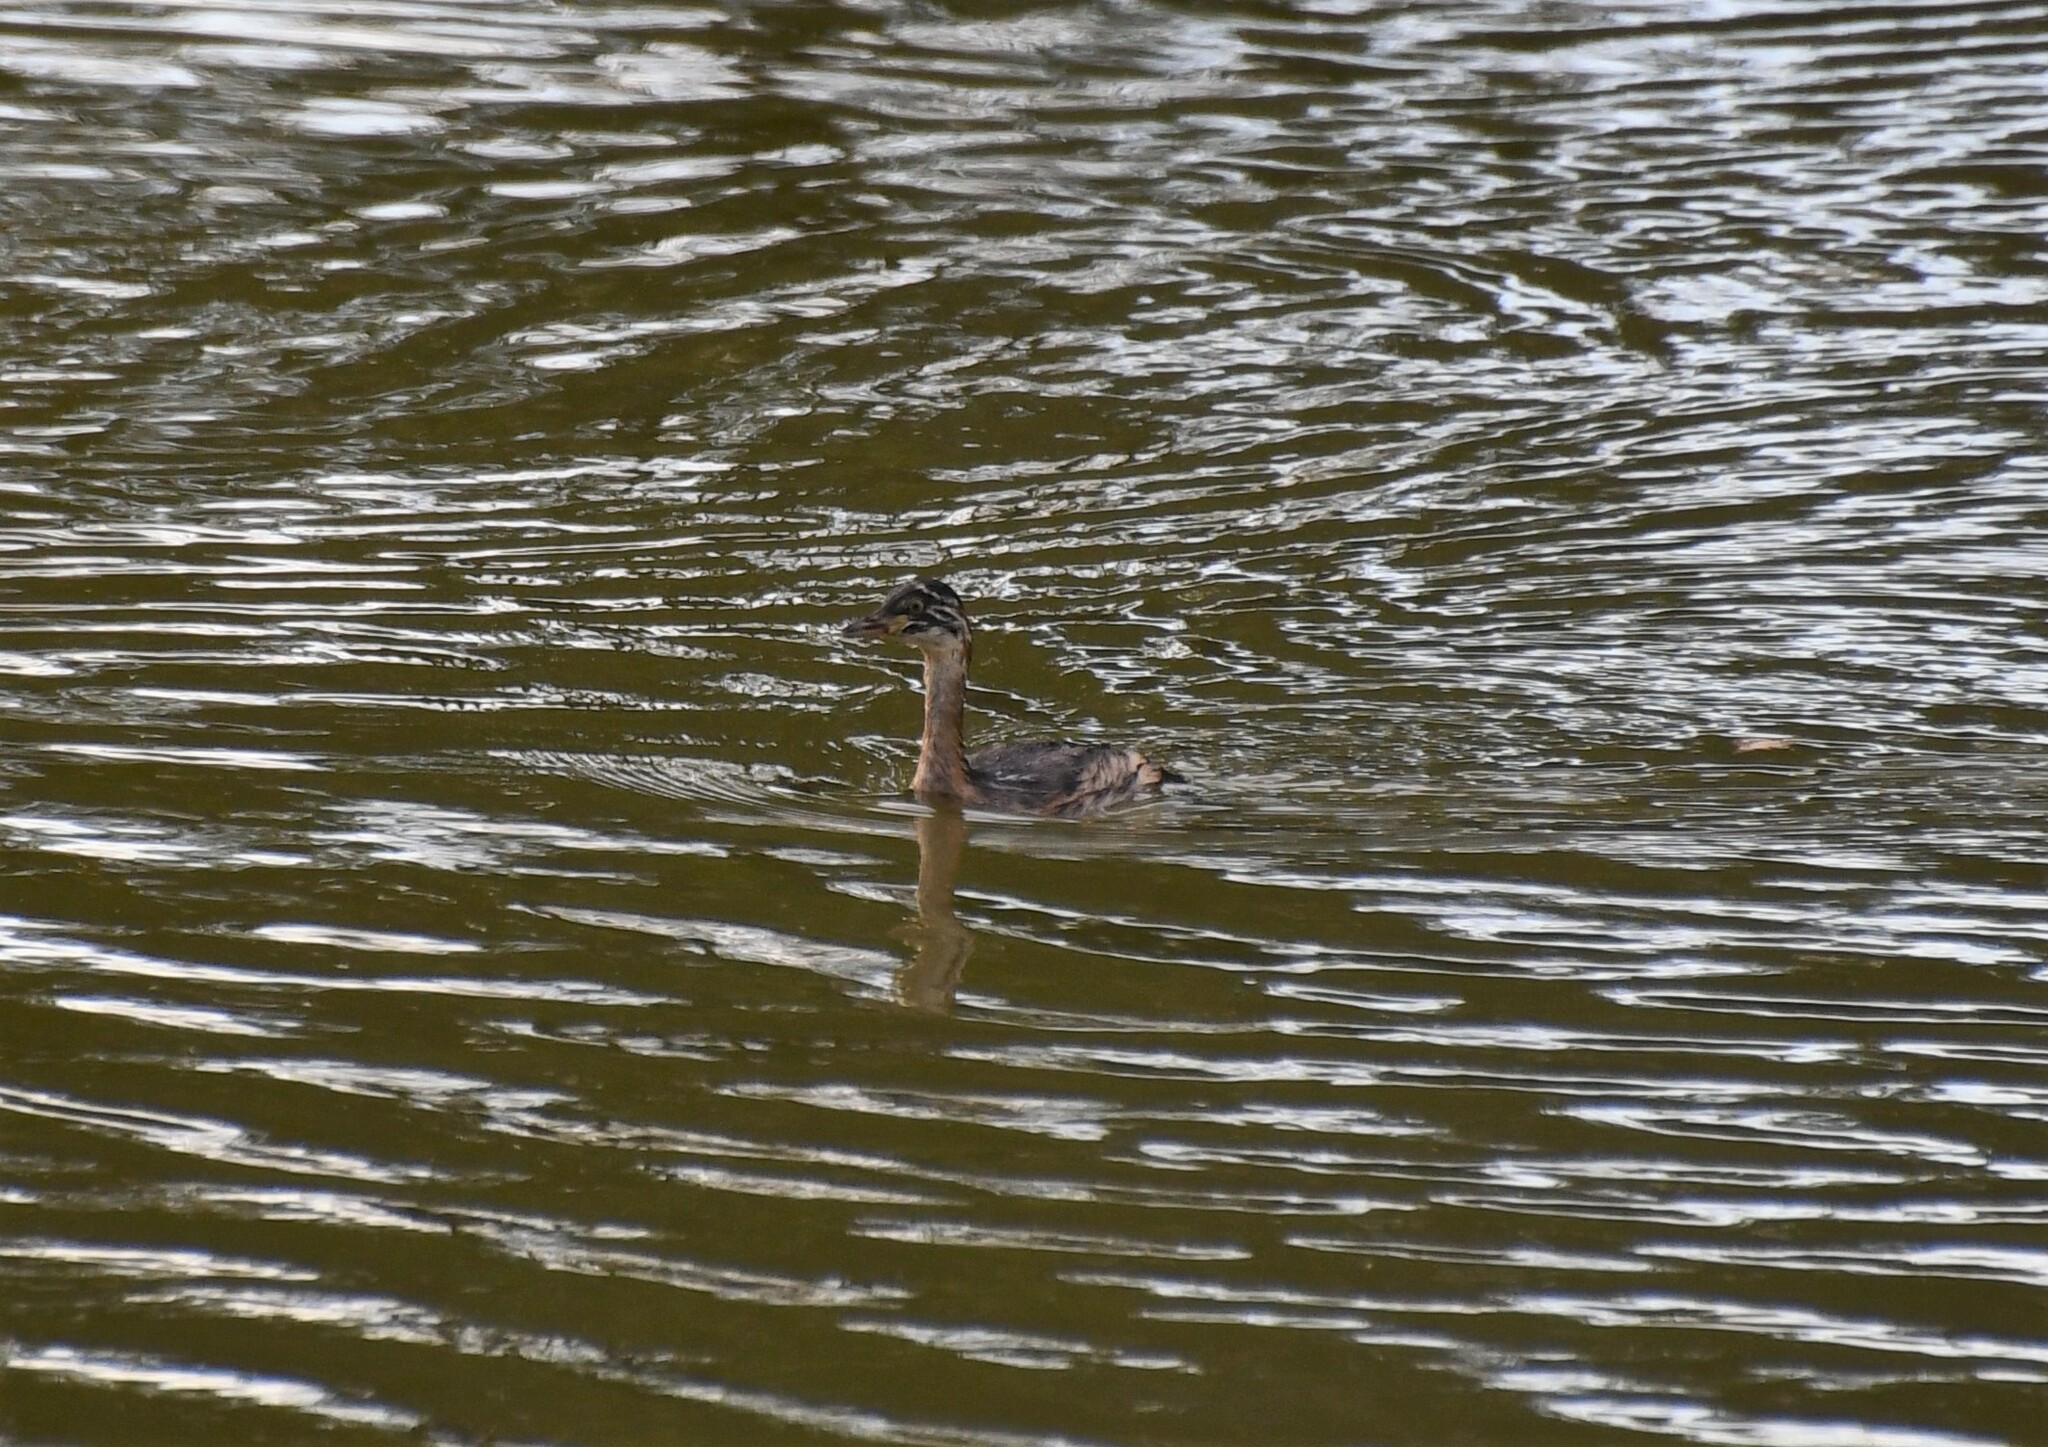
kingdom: Animalia
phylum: Chordata
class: Aves
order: Podicipediformes
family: Podicipedidae
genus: Tachybaptus
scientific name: Tachybaptus novaehollandiae
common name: Australasian grebe
